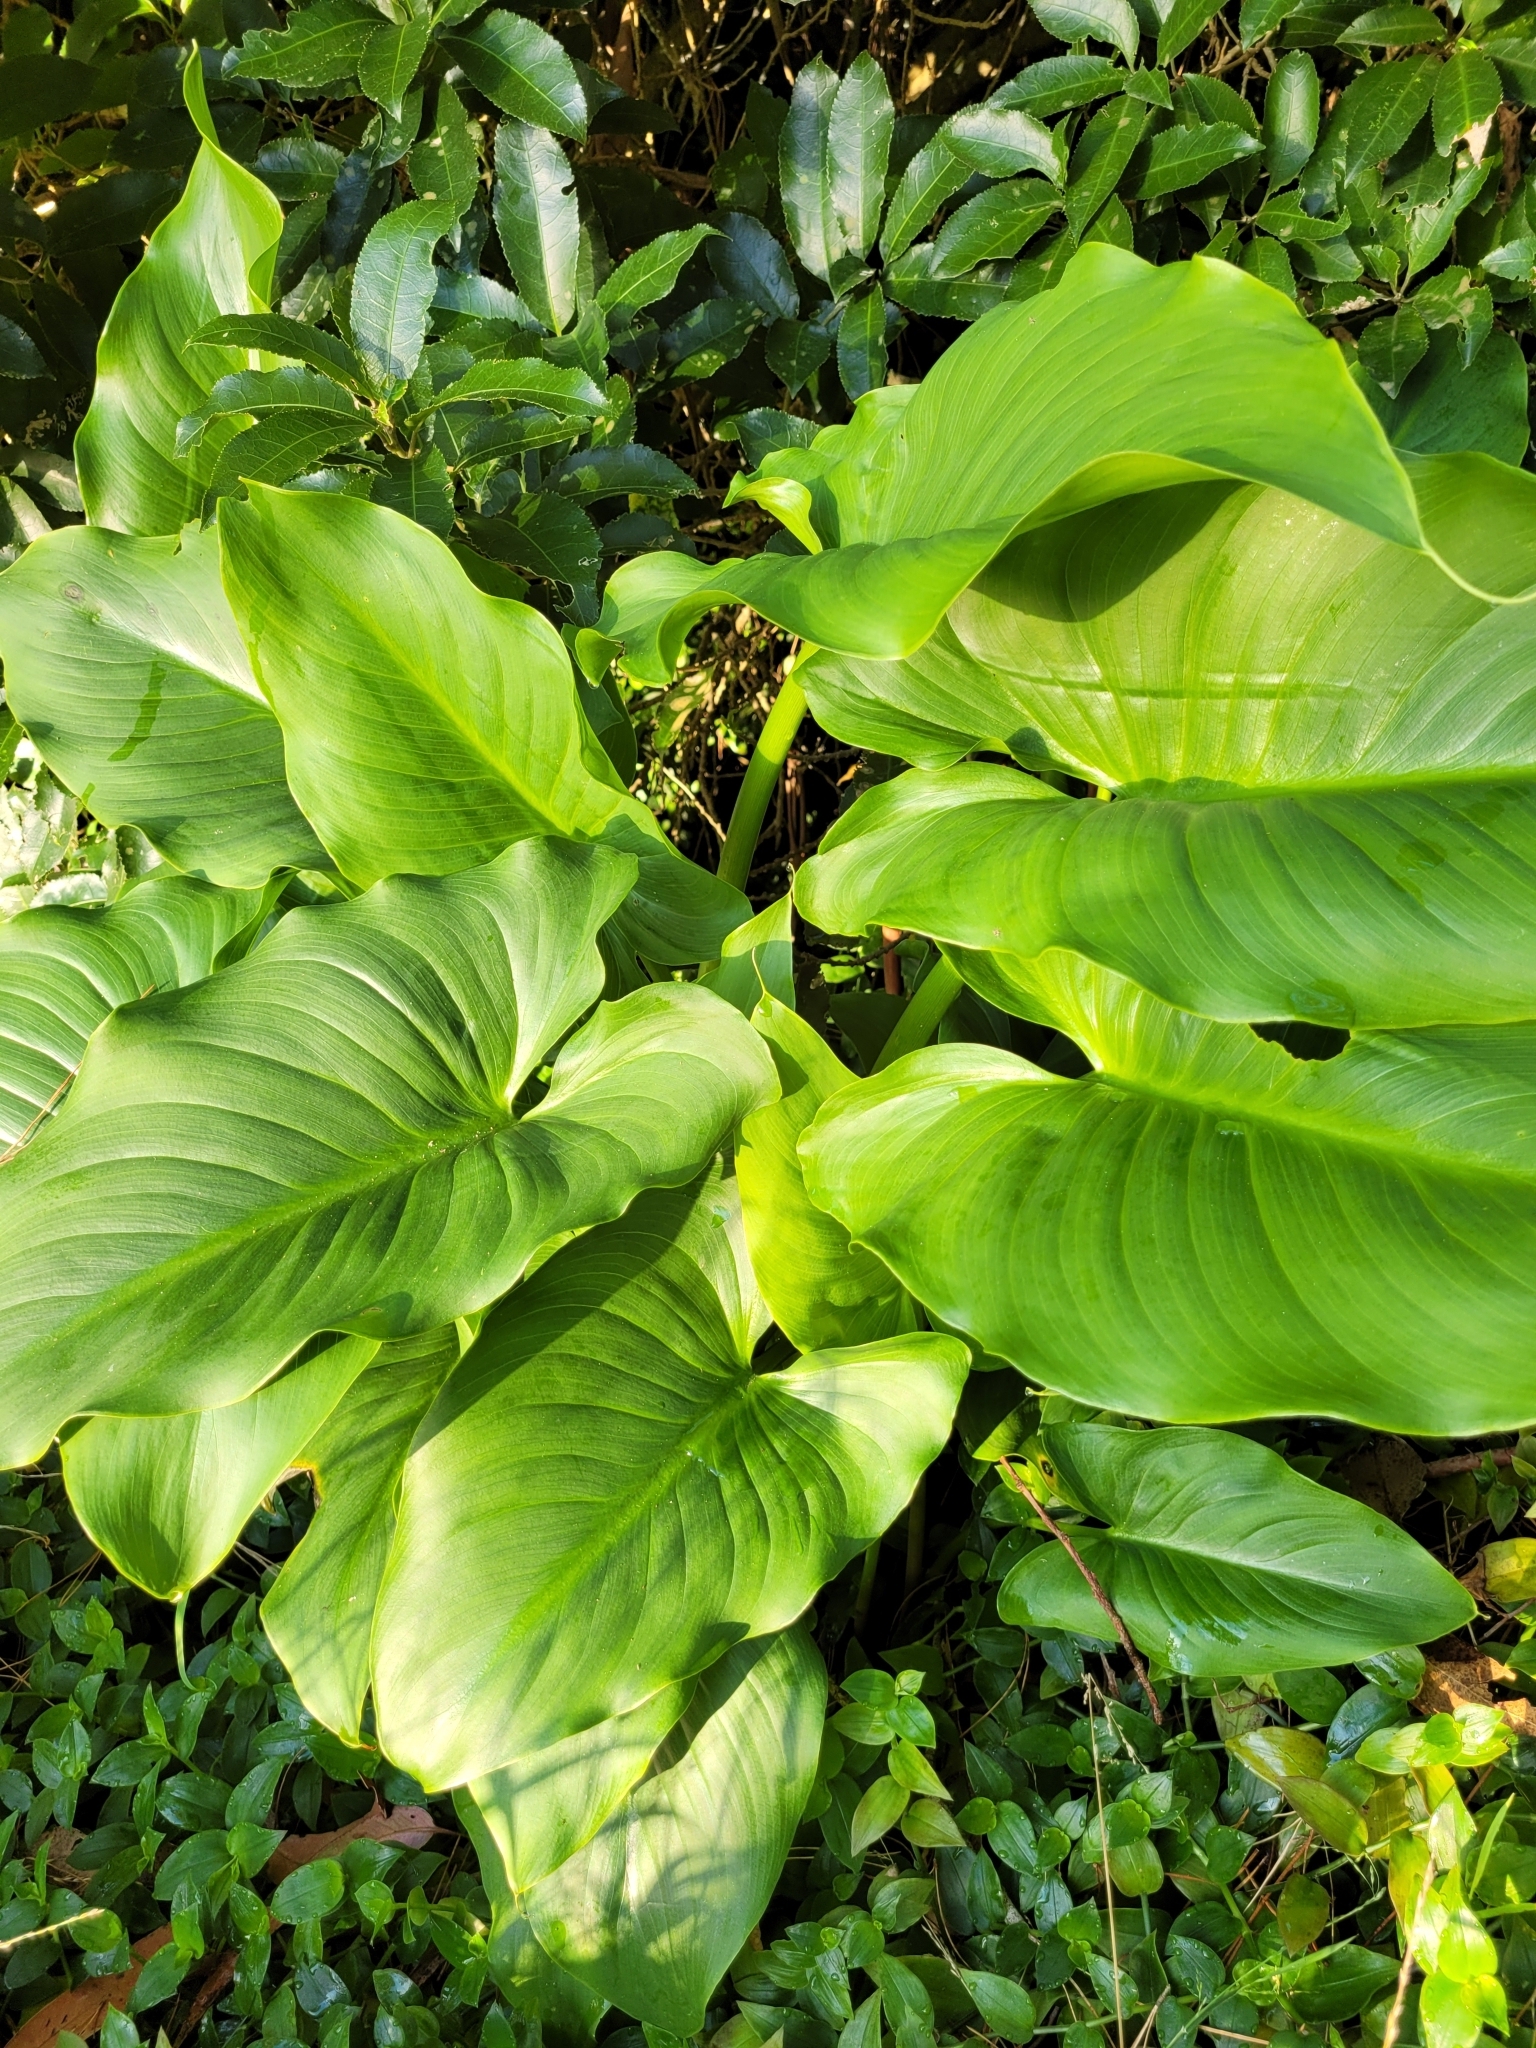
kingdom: Plantae
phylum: Tracheophyta
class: Liliopsida
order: Alismatales
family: Araceae
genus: Zantedeschia
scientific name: Zantedeschia aethiopica
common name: Altar-lily
